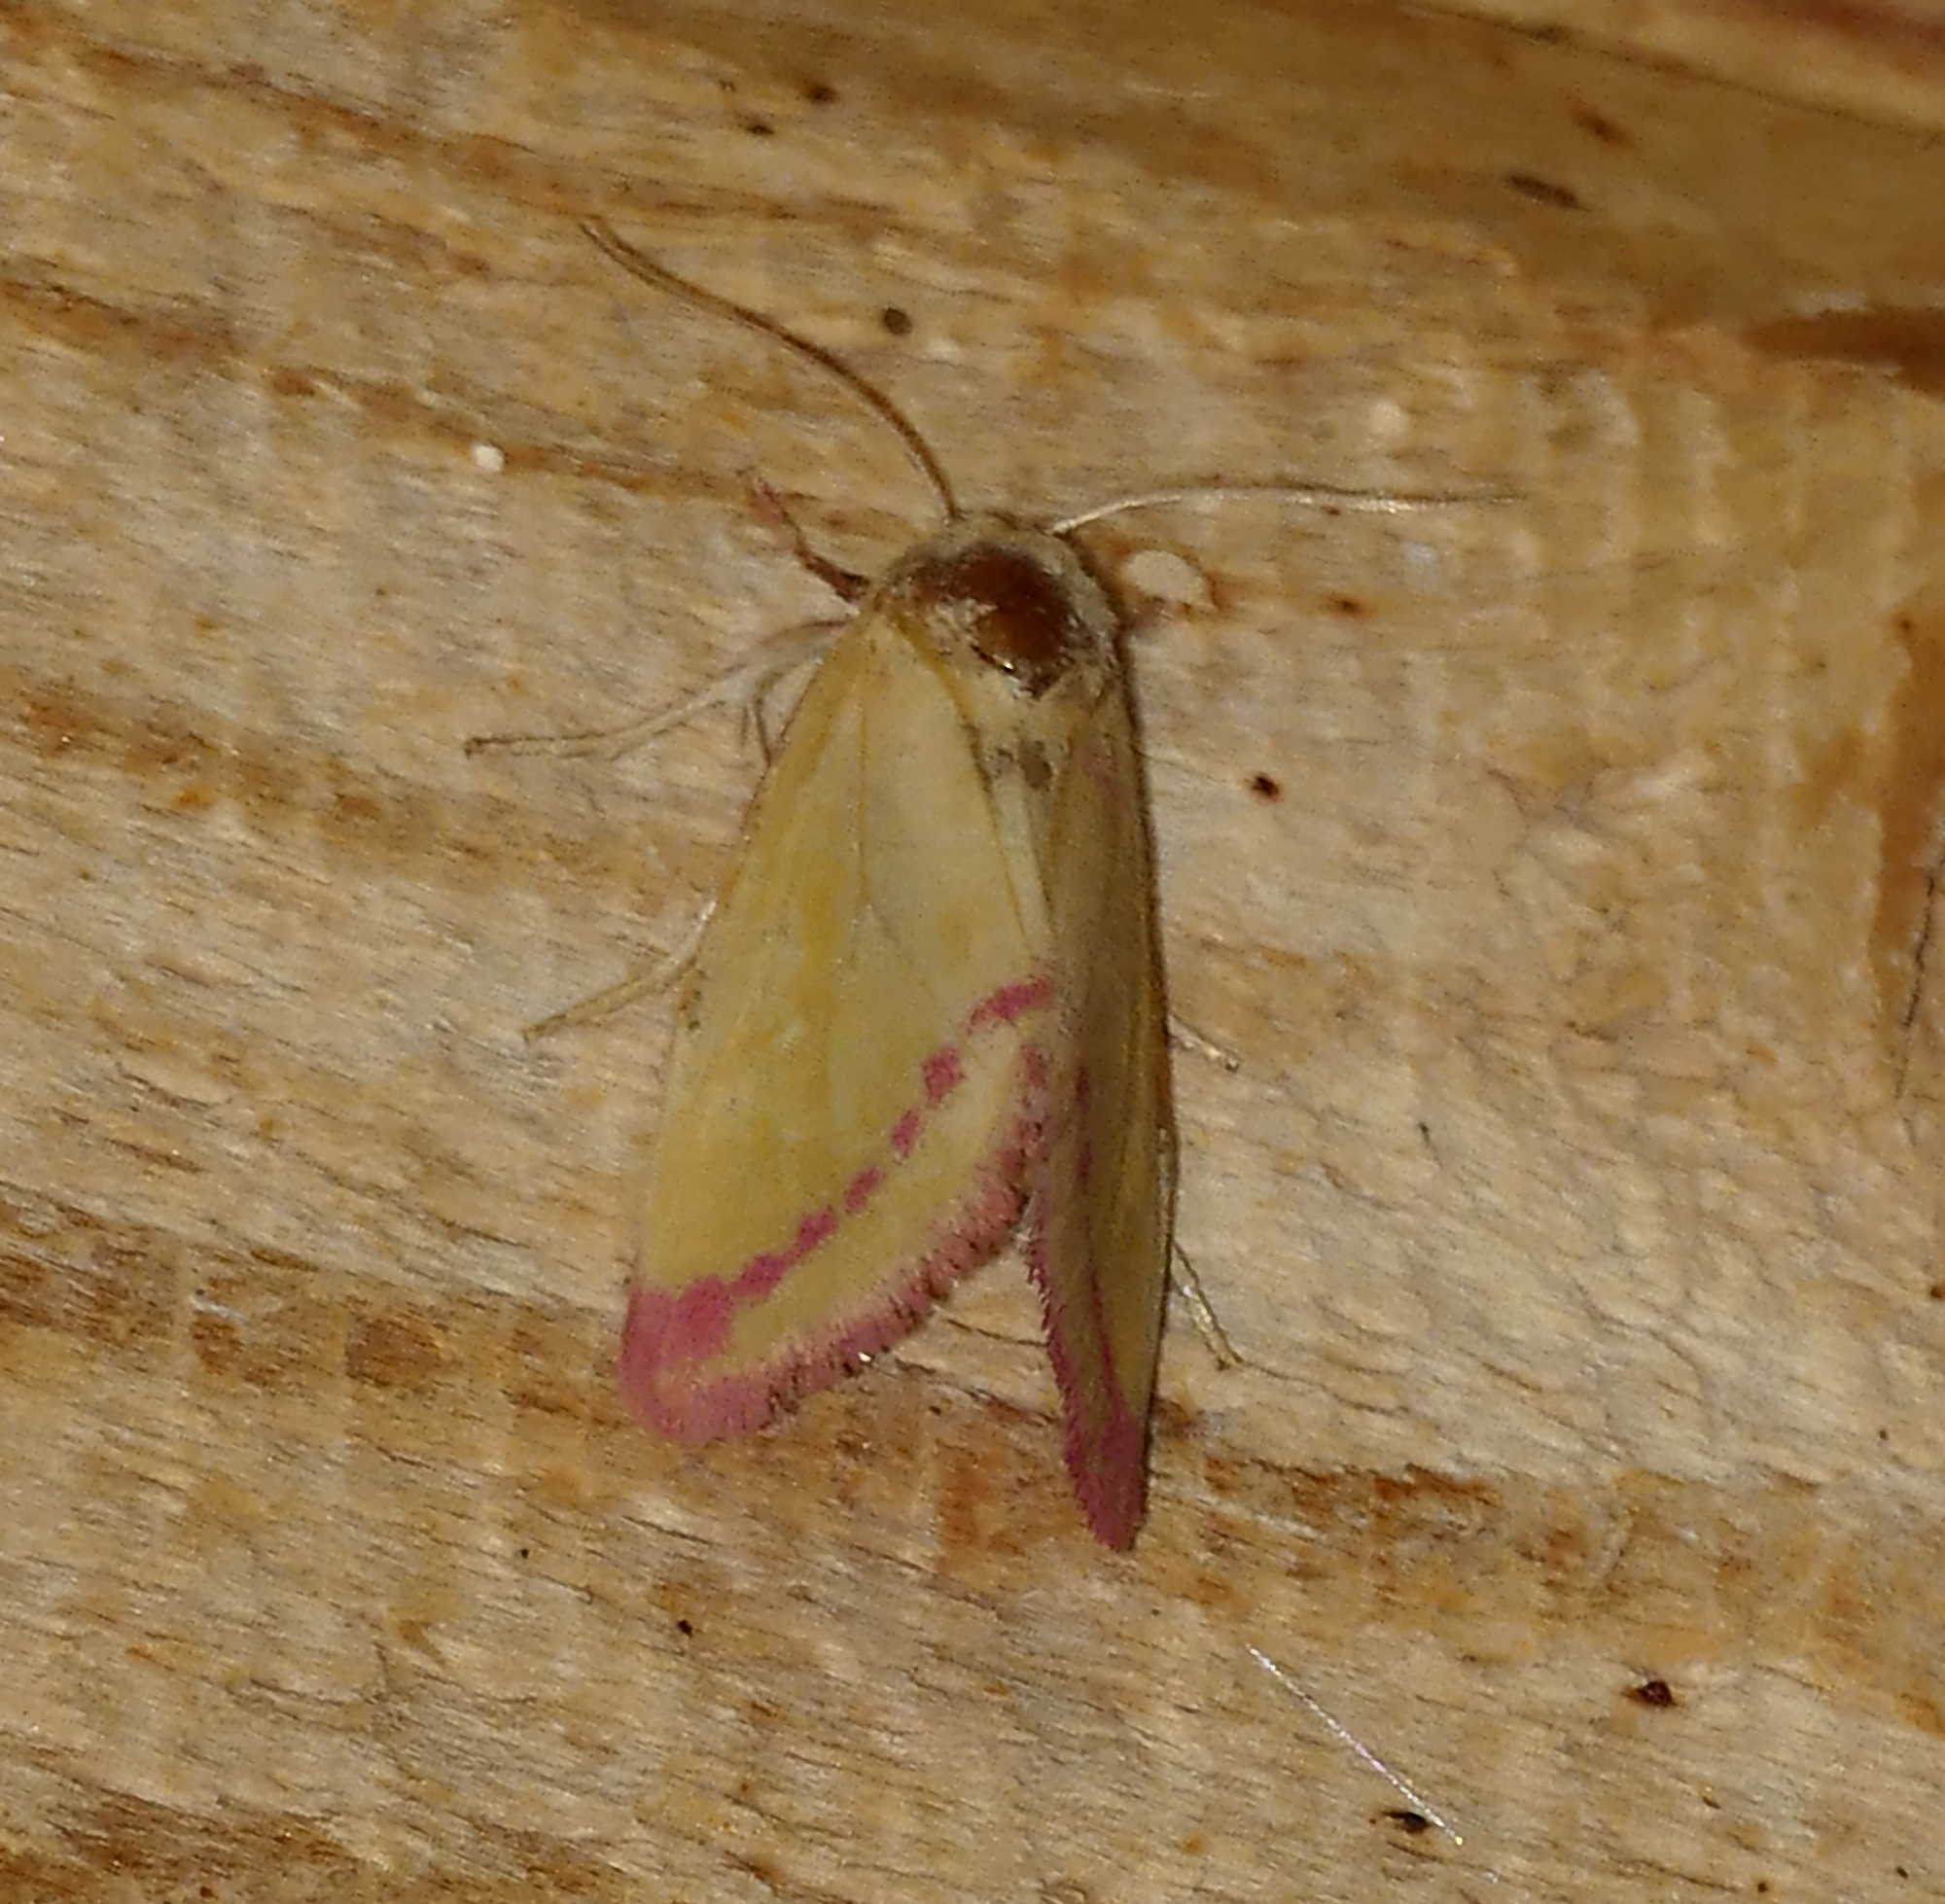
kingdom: Animalia
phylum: Arthropoda
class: Insecta
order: Lepidoptera
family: Noctuidae
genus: Heliocheilus
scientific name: Heliocheilus toralis
